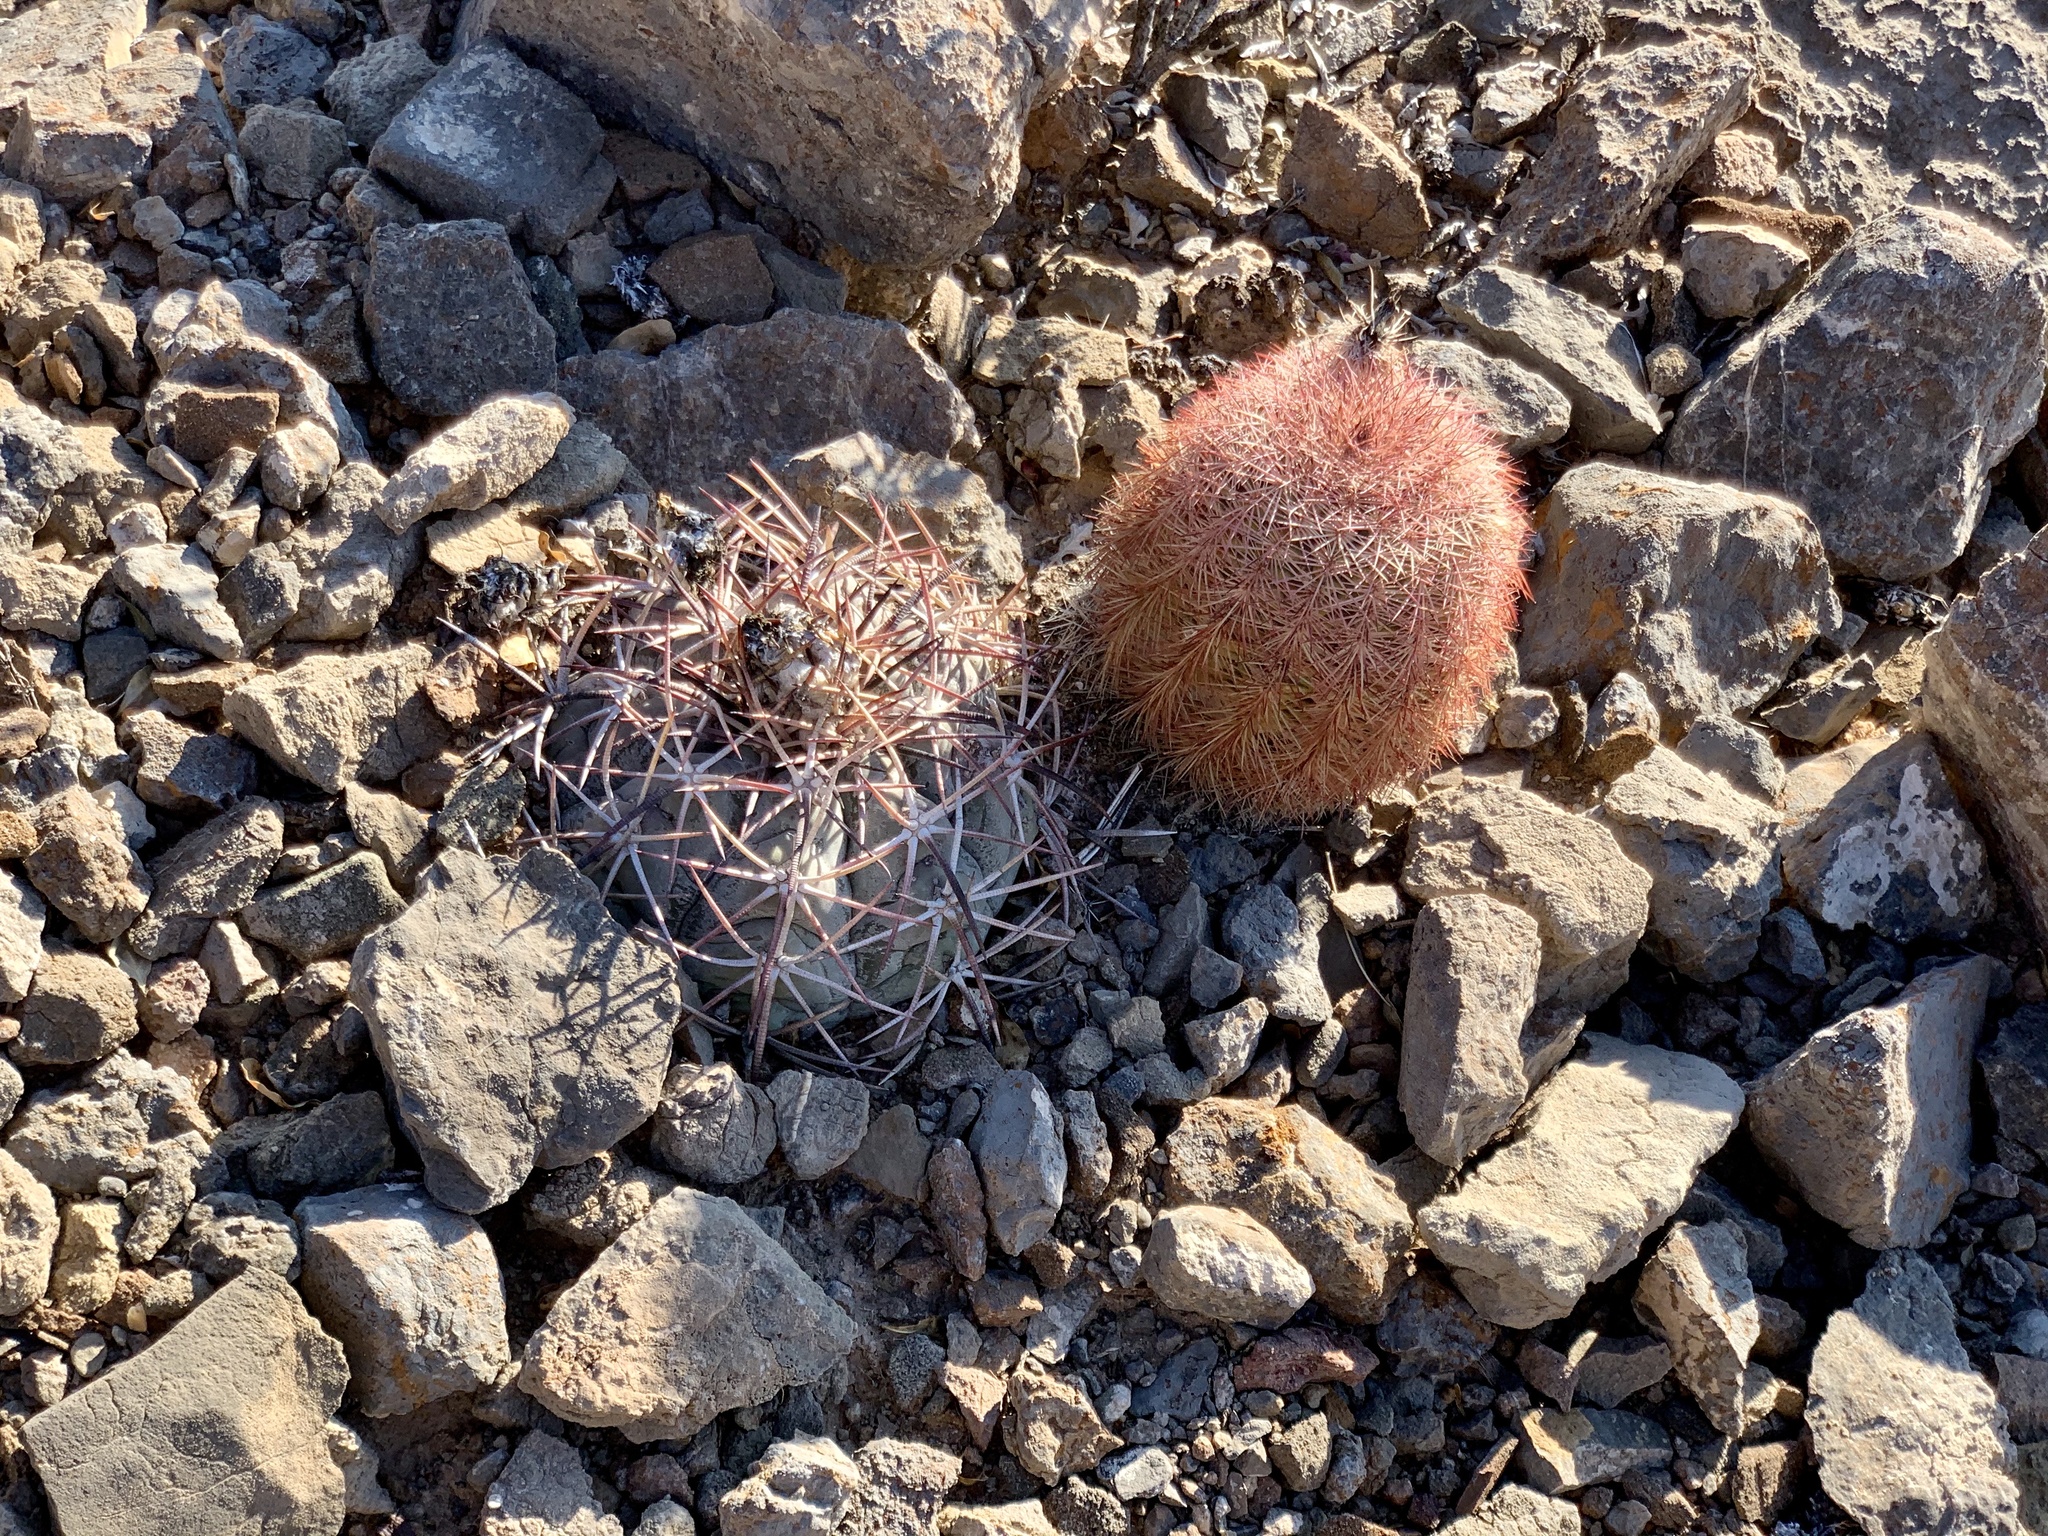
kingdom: Plantae
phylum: Tracheophyta
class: Magnoliopsida
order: Caryophyllales
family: Cactaceae
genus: Echinocactus
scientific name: Echinocactus horizonthalonius
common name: Devilshead
